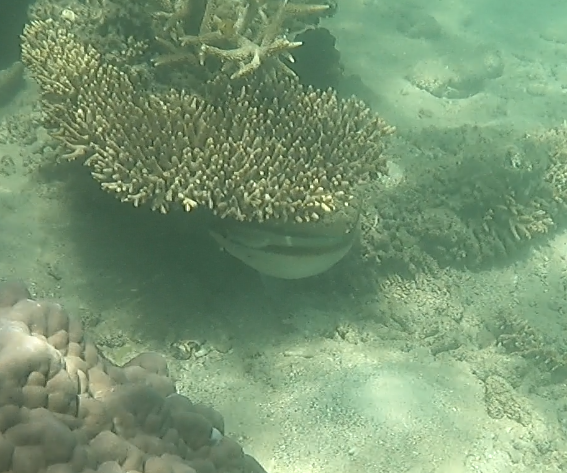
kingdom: Animalia
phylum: Chordata
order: Perciformes
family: Nemipteridae
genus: Scolopsis
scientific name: Scolopsis monogramma
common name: Monogrammed monocle bream
